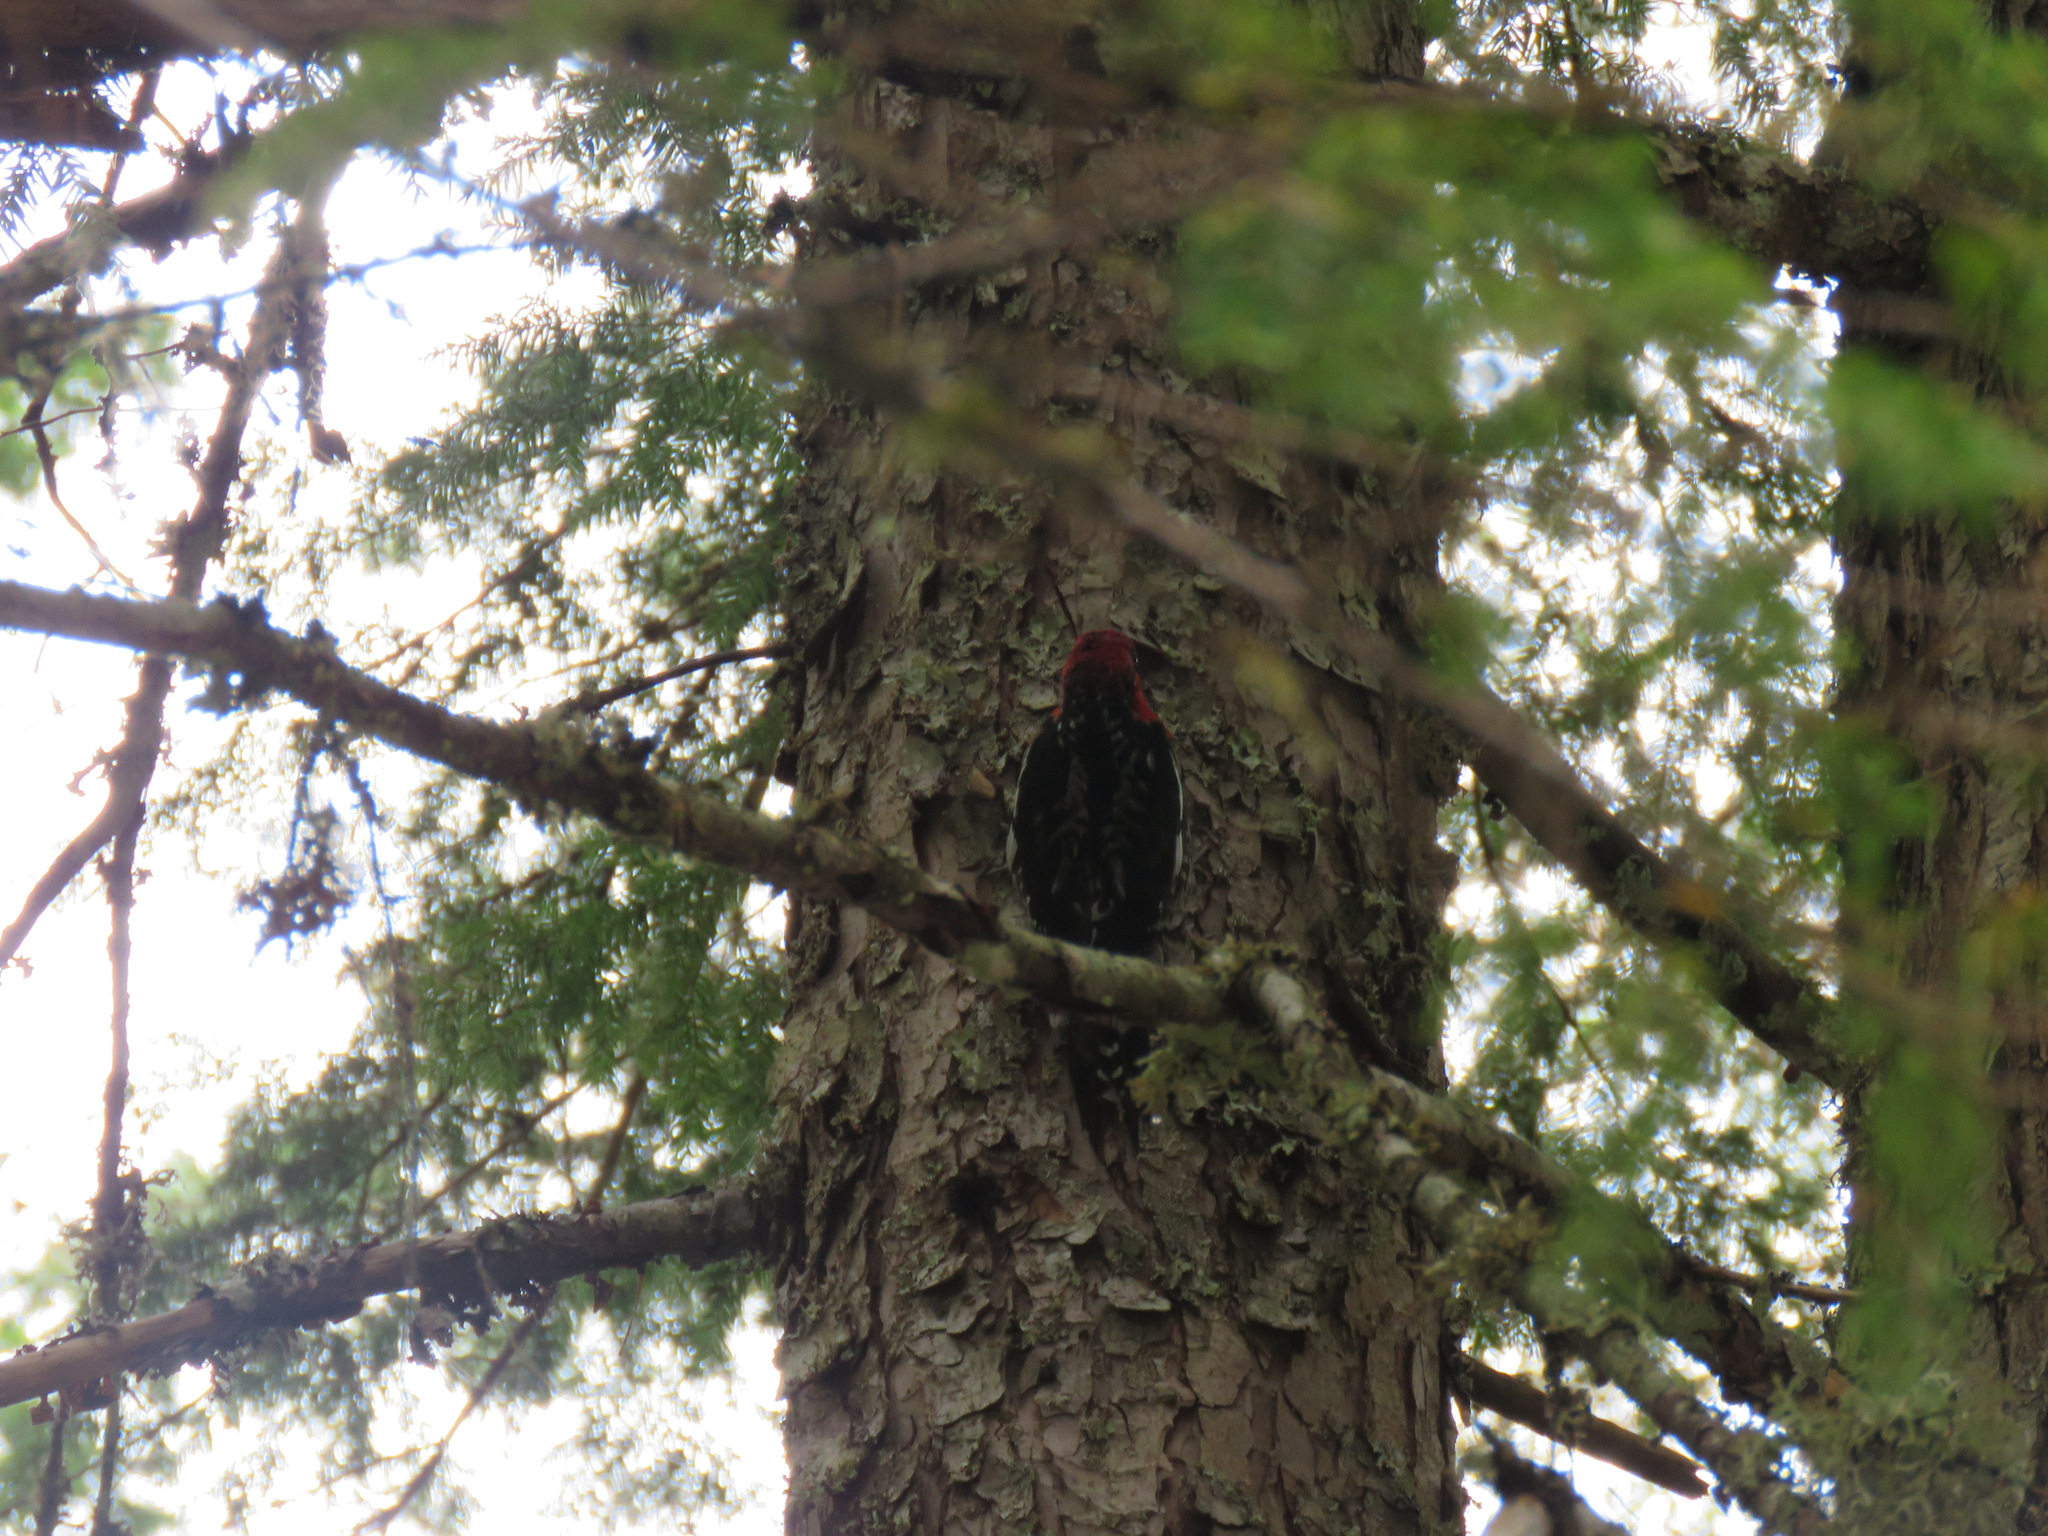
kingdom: Animalia
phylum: Chordata
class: Aves
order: Piciformes
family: Picidae
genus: Sphyrapicus
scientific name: Sphyrapicus ruber
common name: Red-breasted sapsucker
